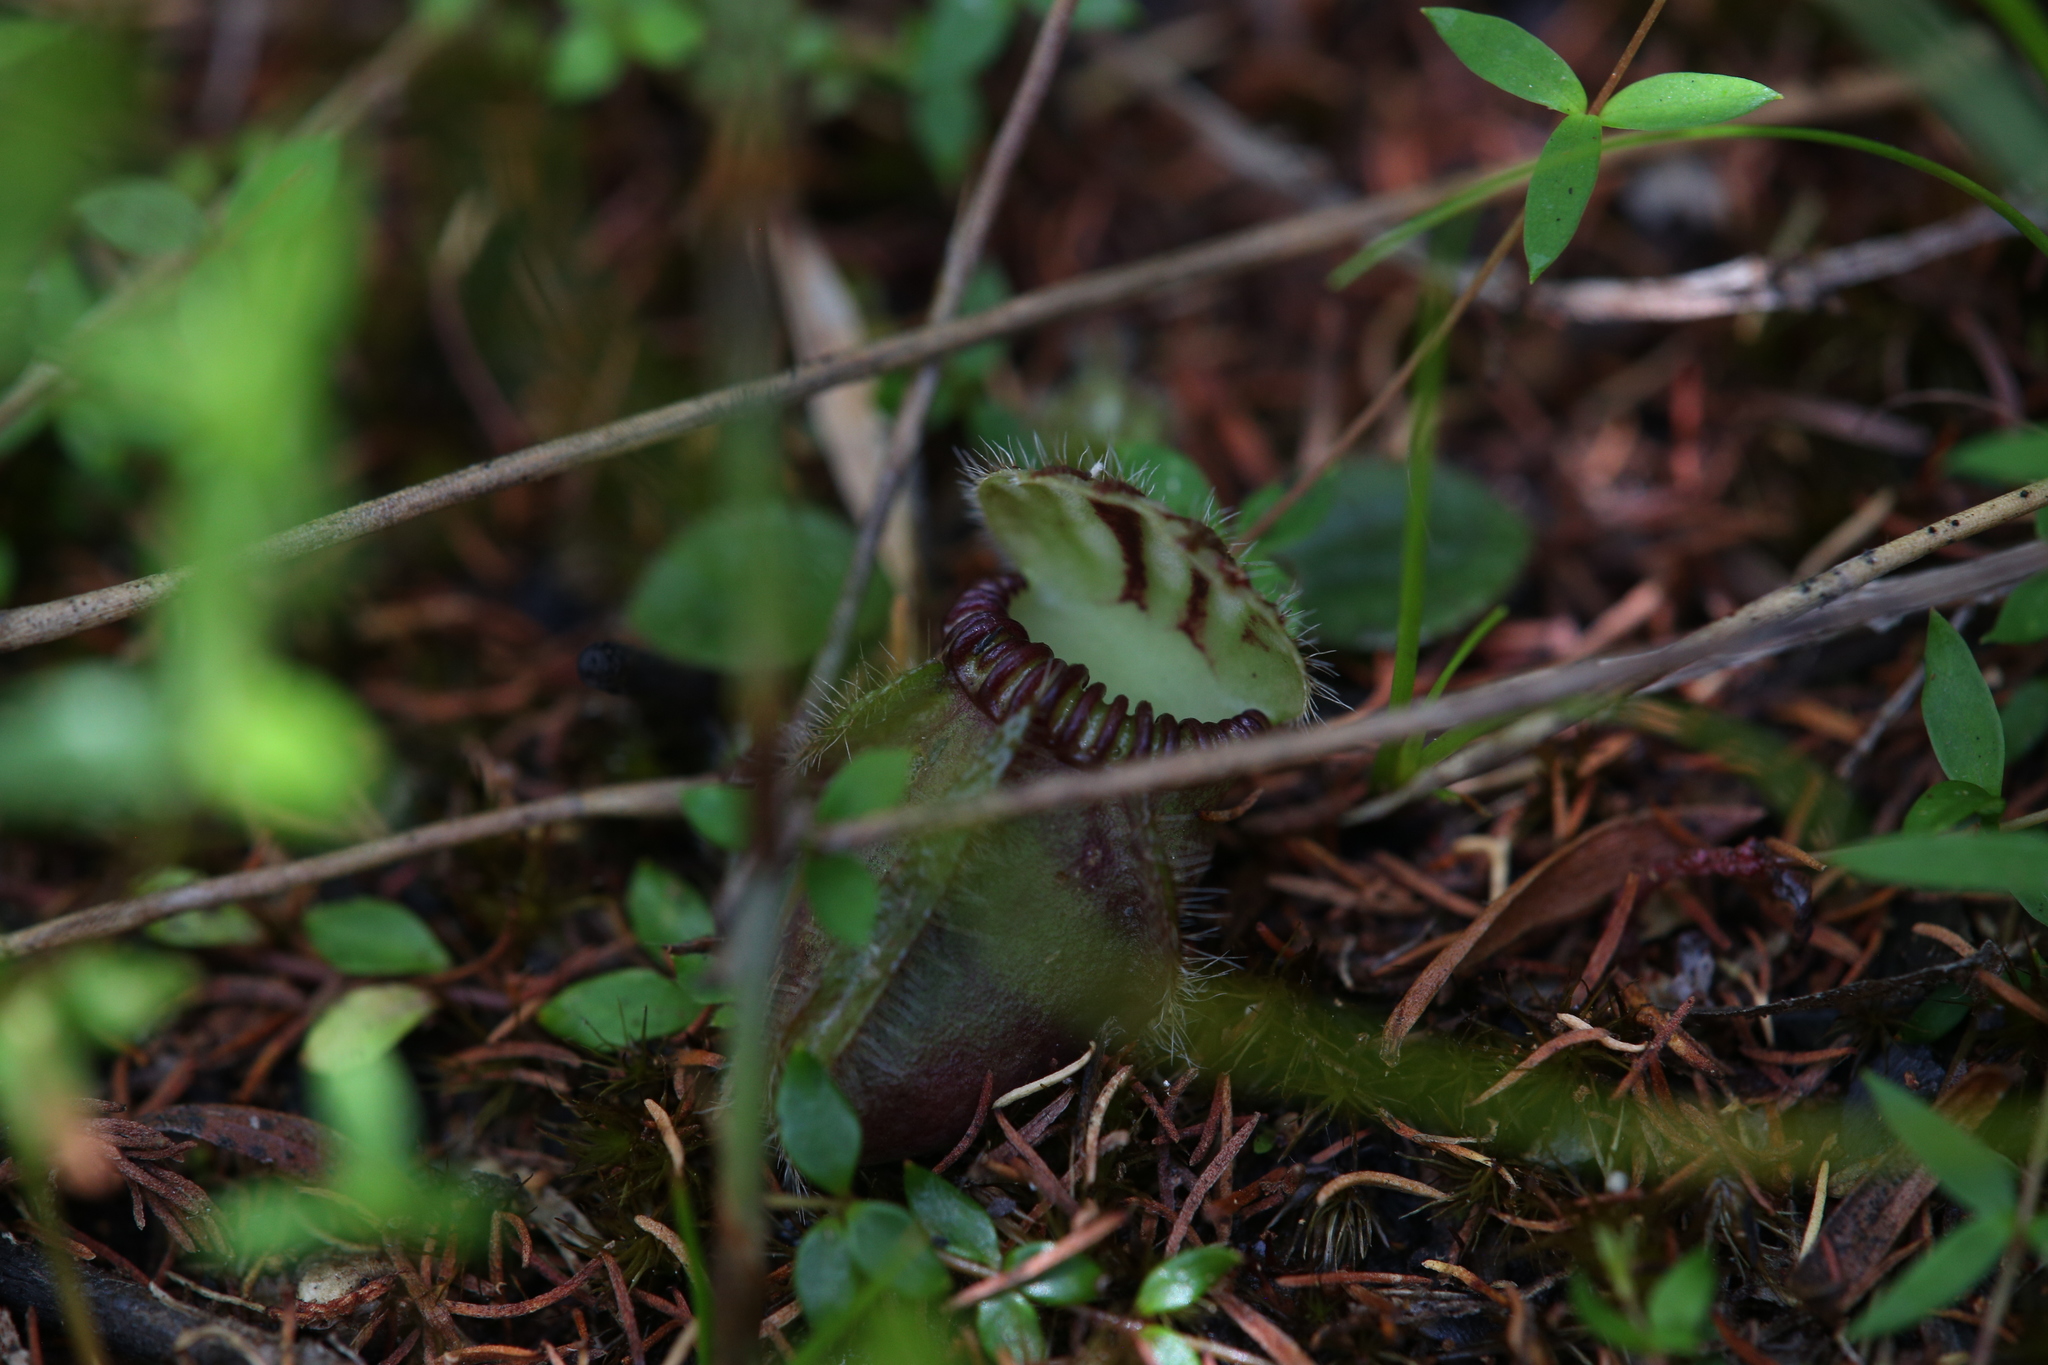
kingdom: Plantae
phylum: Tracheophyta
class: Magnoliopsida
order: Oxalidales
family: Cephalotaceae
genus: Cephalotus
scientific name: Cephalotus follicularis
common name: Australian pitcher plant
